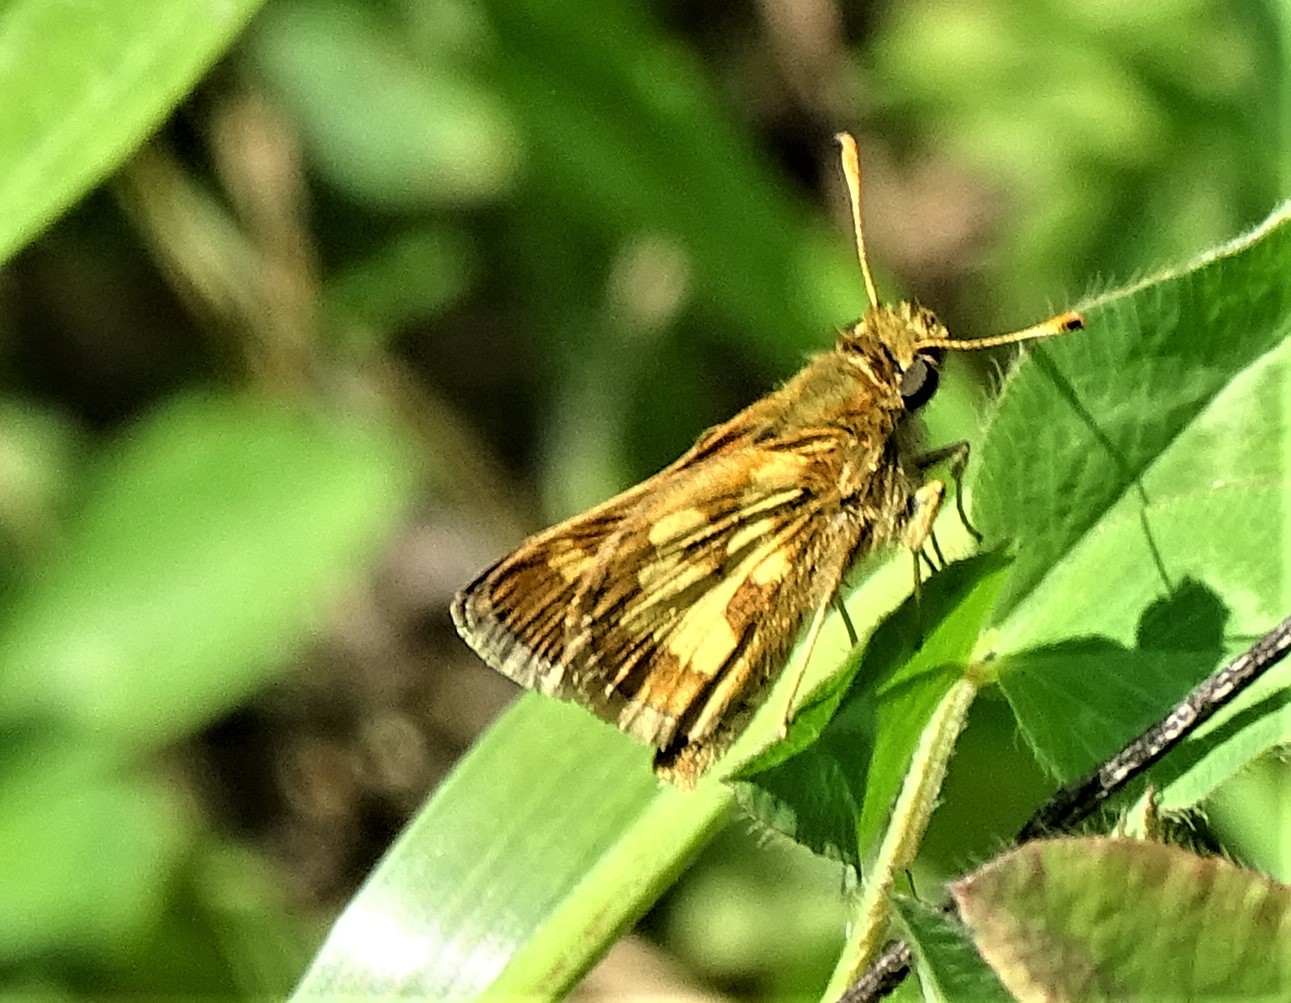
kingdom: Animalia
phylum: Arthropoda
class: Insecta
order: Lepidoptera
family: Hesperiidae
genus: Polites
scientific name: Polites coras
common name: Peck's skipper
